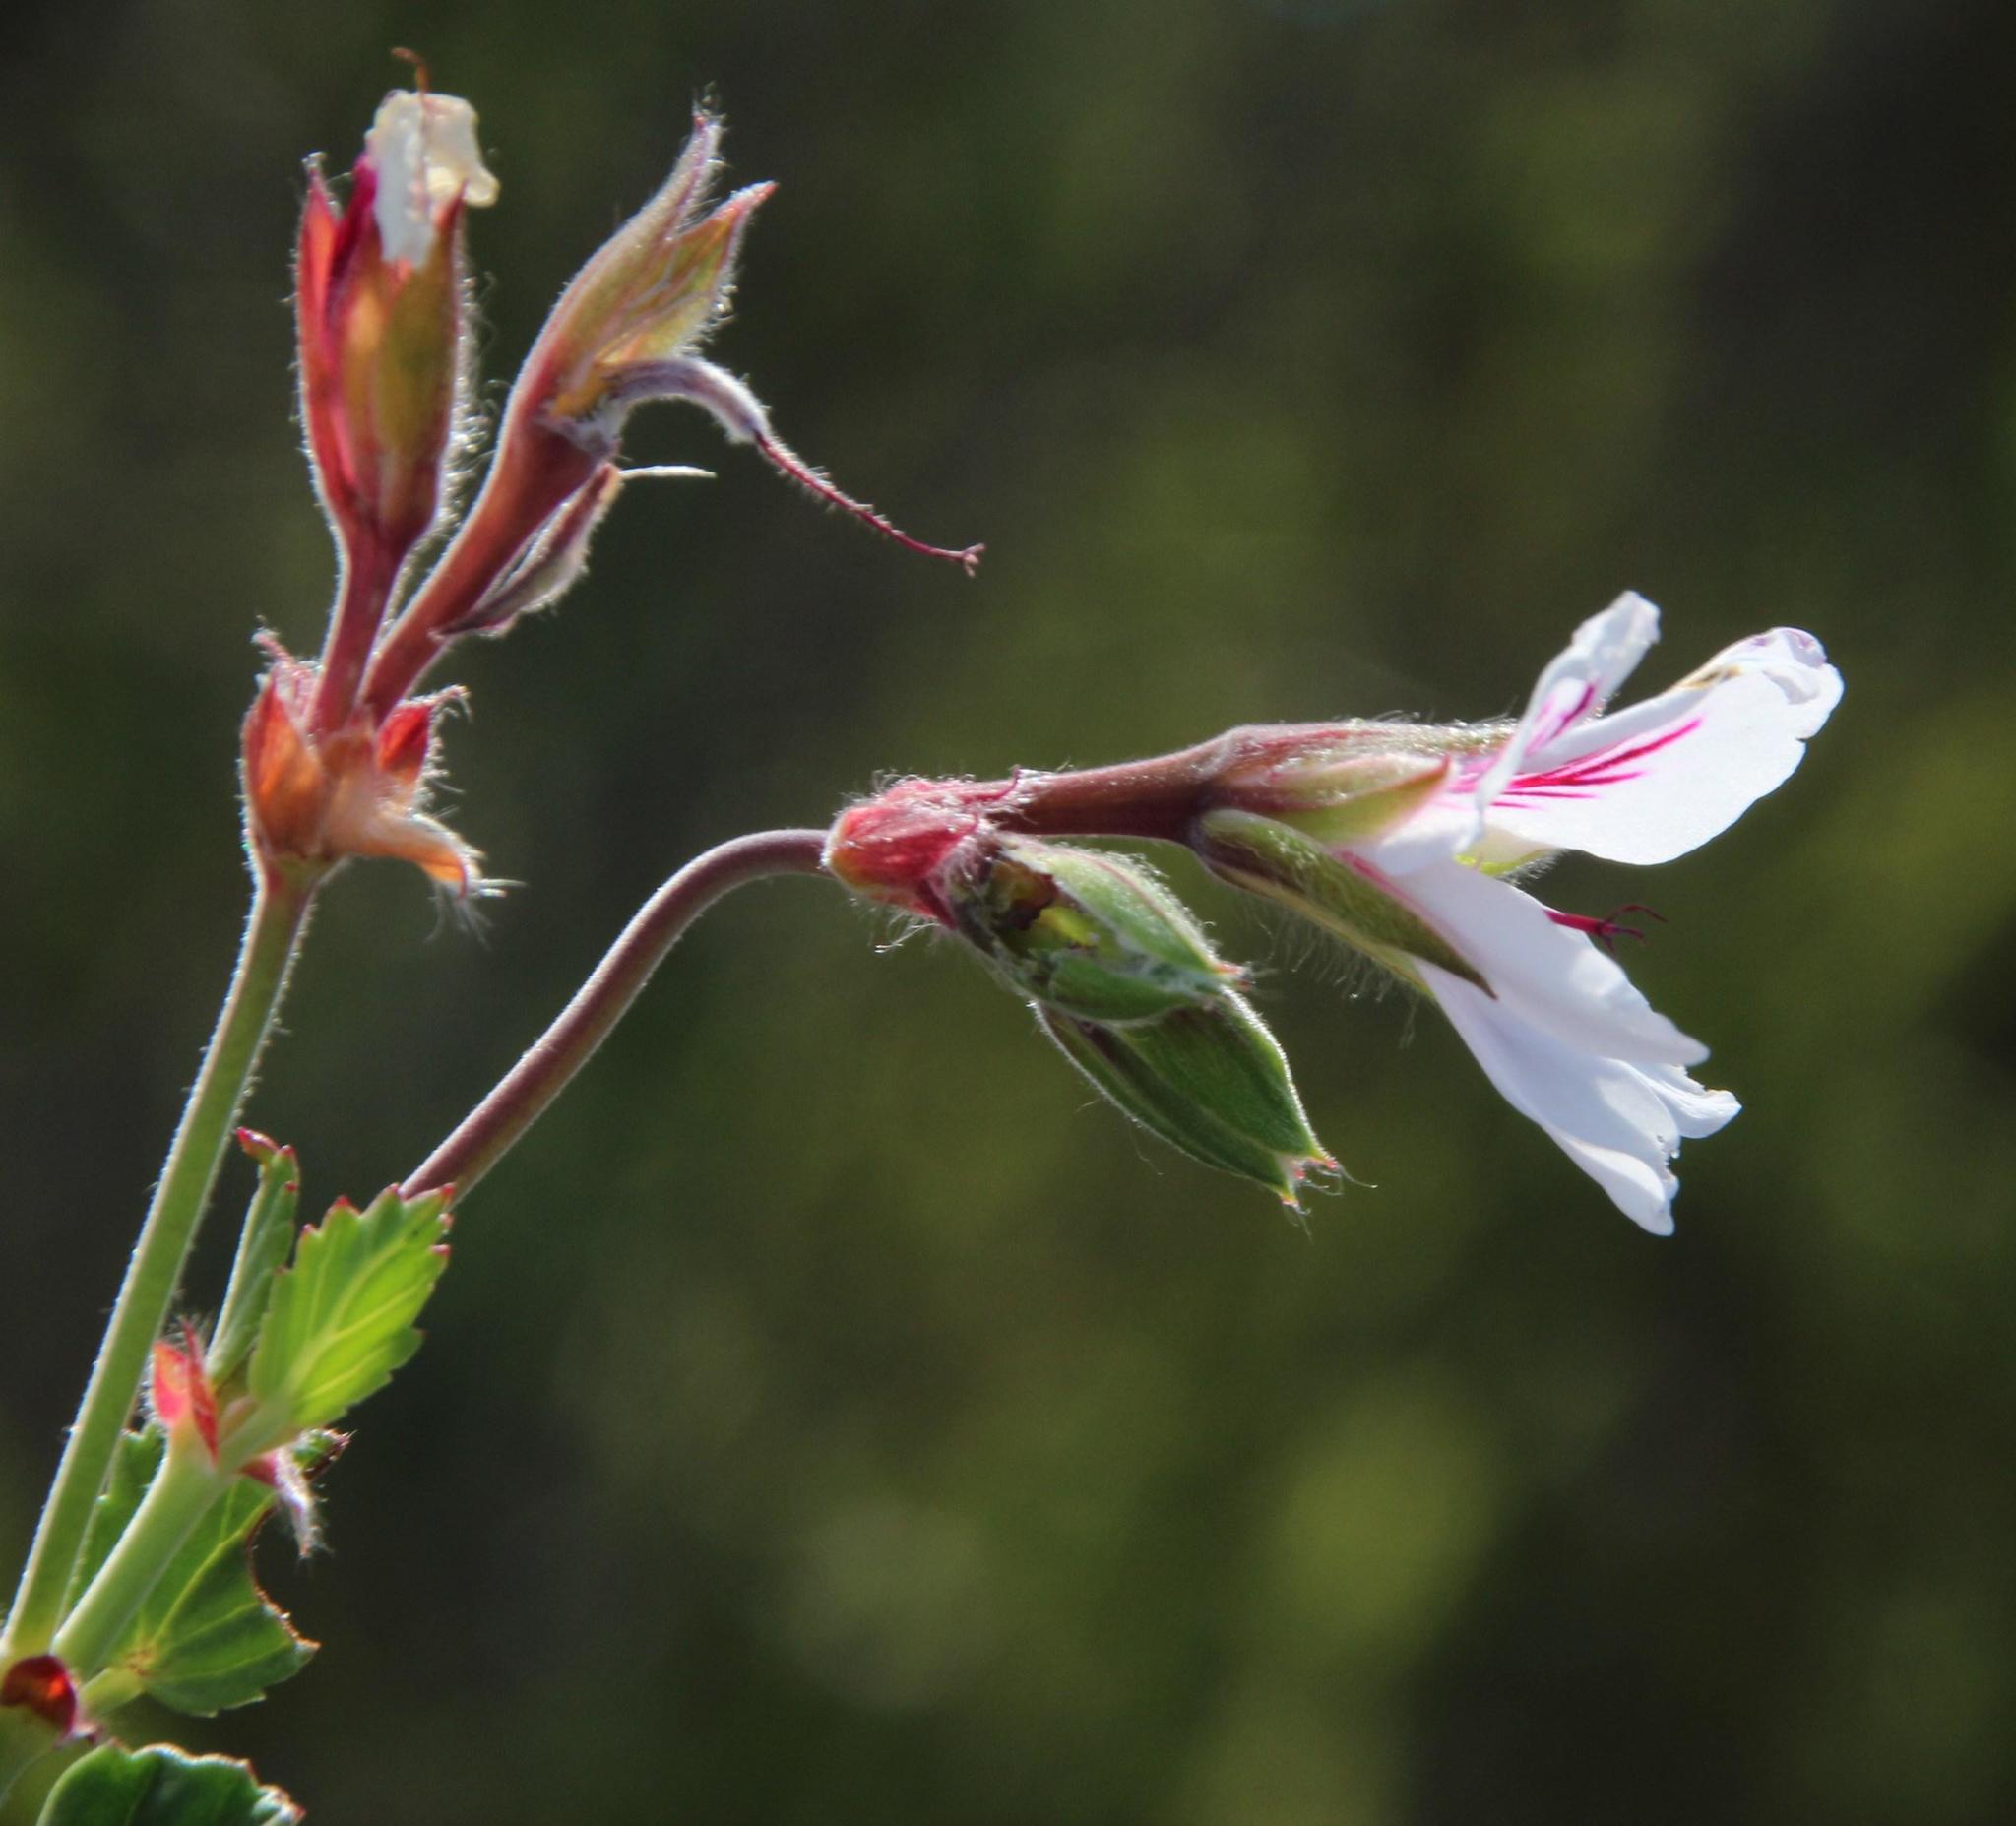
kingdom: Plantae
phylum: Tracheophyta
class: Magnoliopsida
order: Geraniales
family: Geraniaceae
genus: Pelargonium
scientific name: Pelargonium betulinum
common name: Birch-leaf pelargonium
